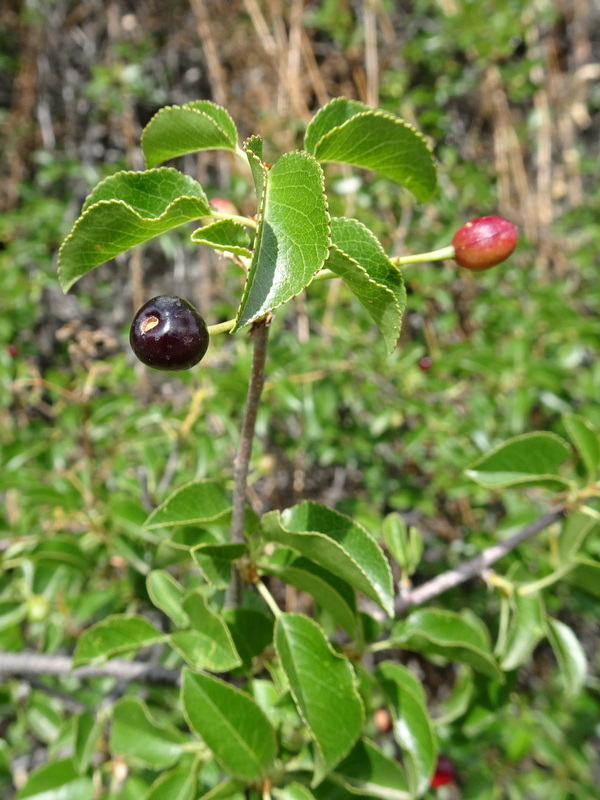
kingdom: Plantae
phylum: Tracheophyta
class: Magnoliopsida
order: Rosales
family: Rosaceae
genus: Prunus
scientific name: Prunus mahaleb
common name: Mahaleb cherry
